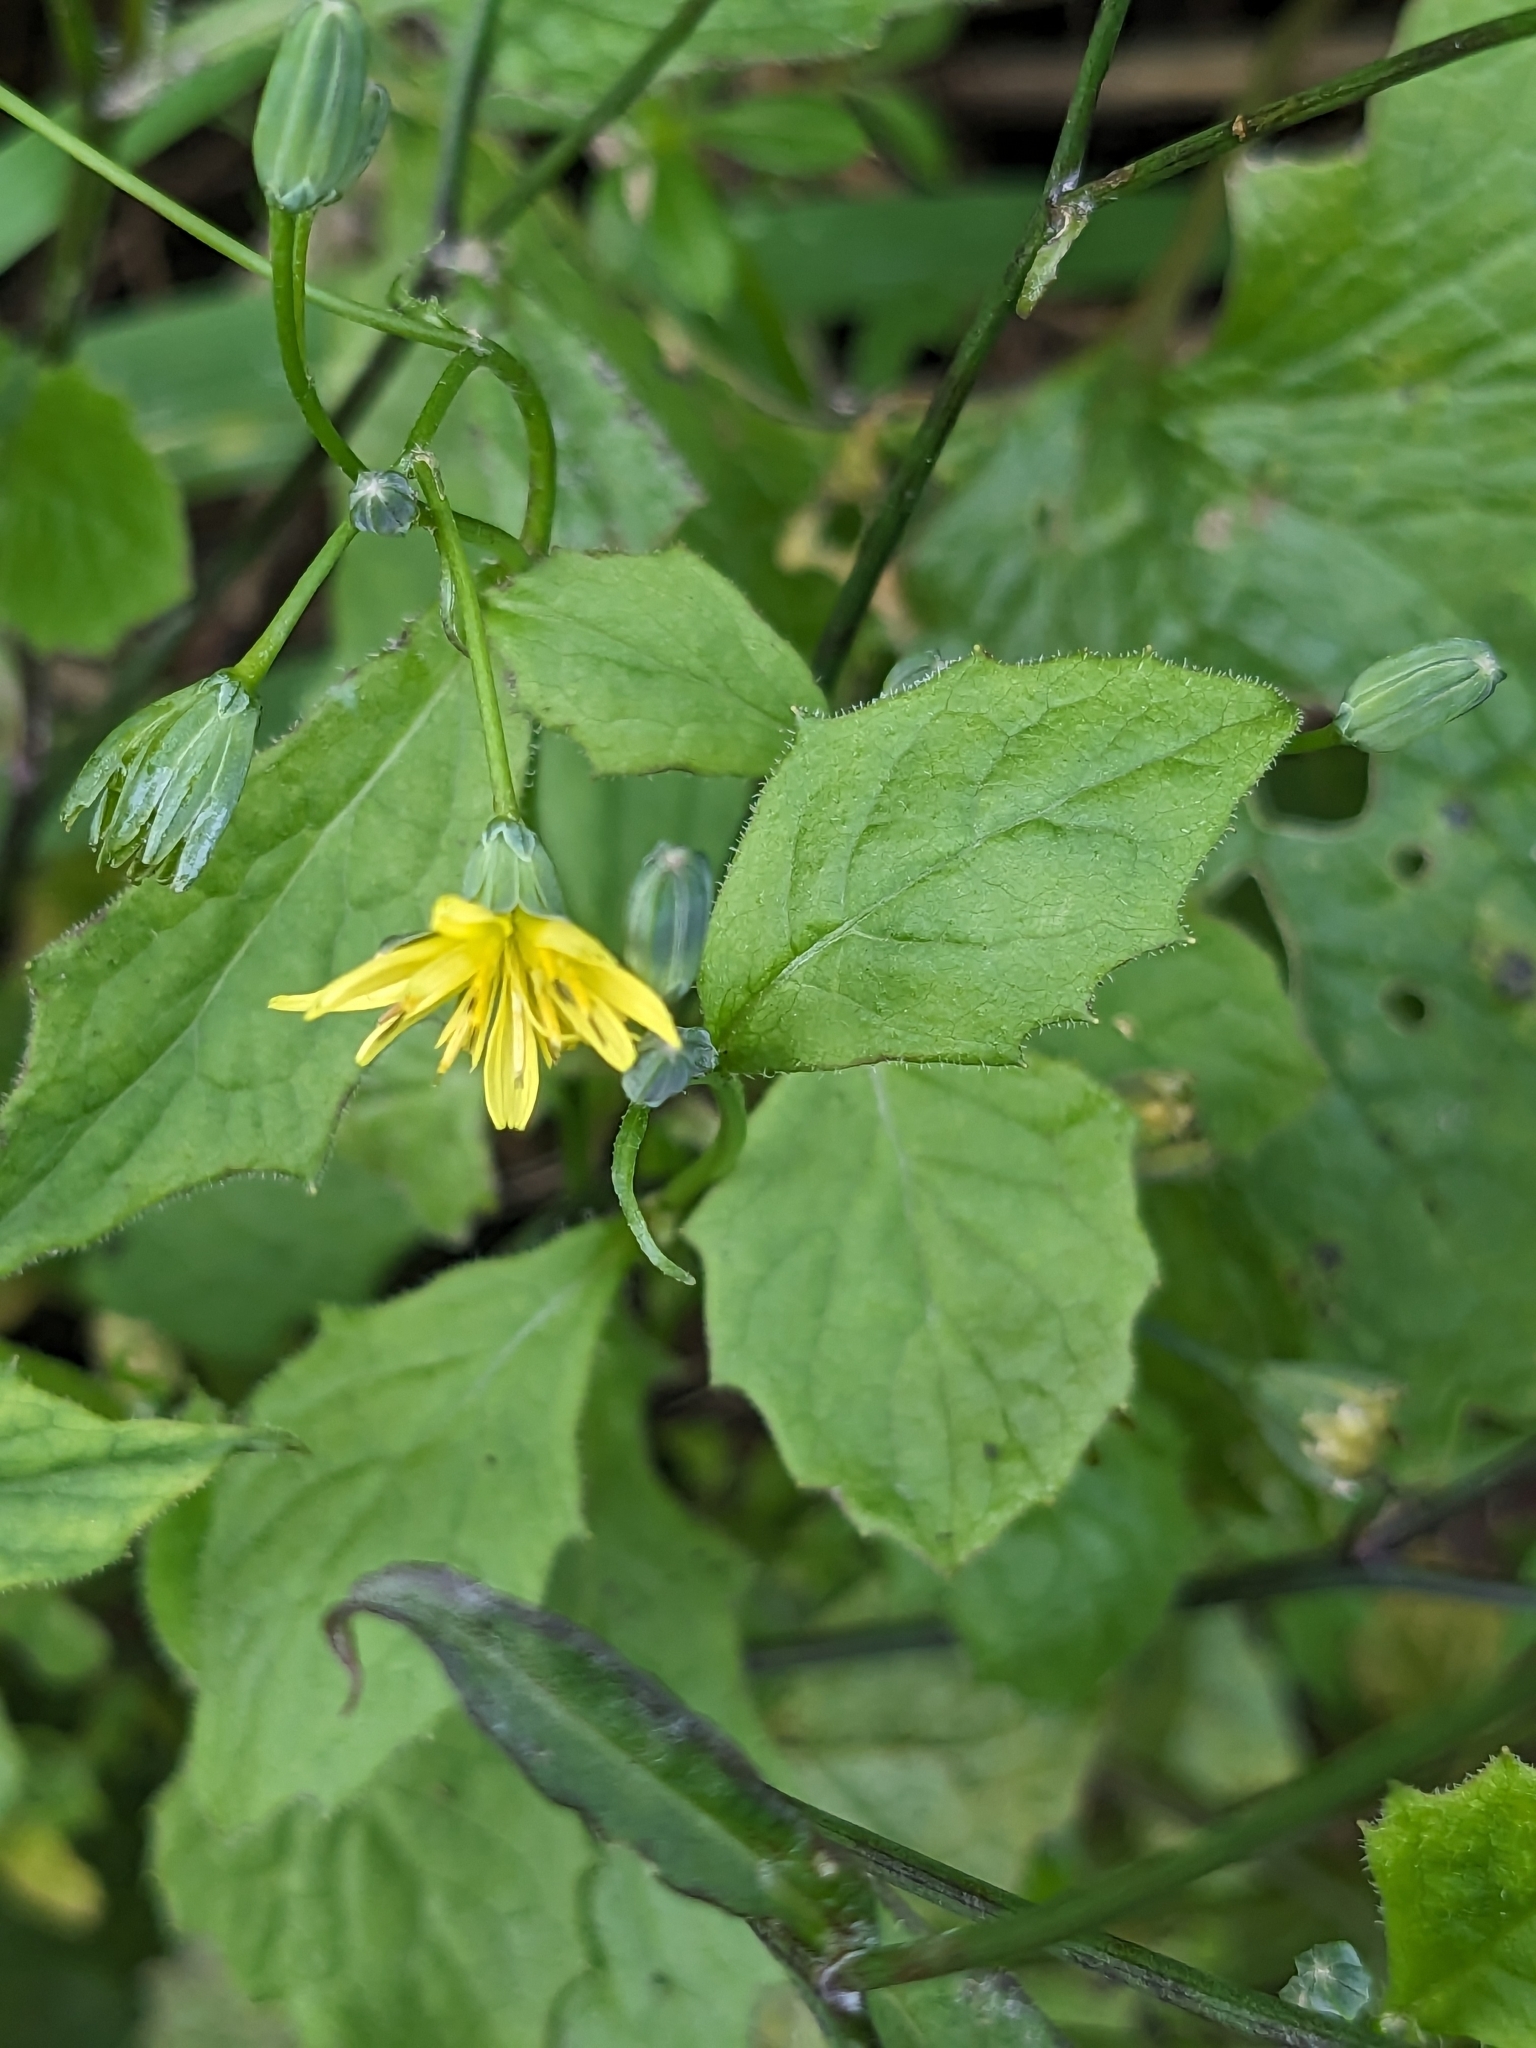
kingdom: Plantae
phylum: Tracheophyta
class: Magnoliopsida
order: Asterales
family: Asteraceae
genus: Lapsana
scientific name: Lapsana communis
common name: Nipplewort
